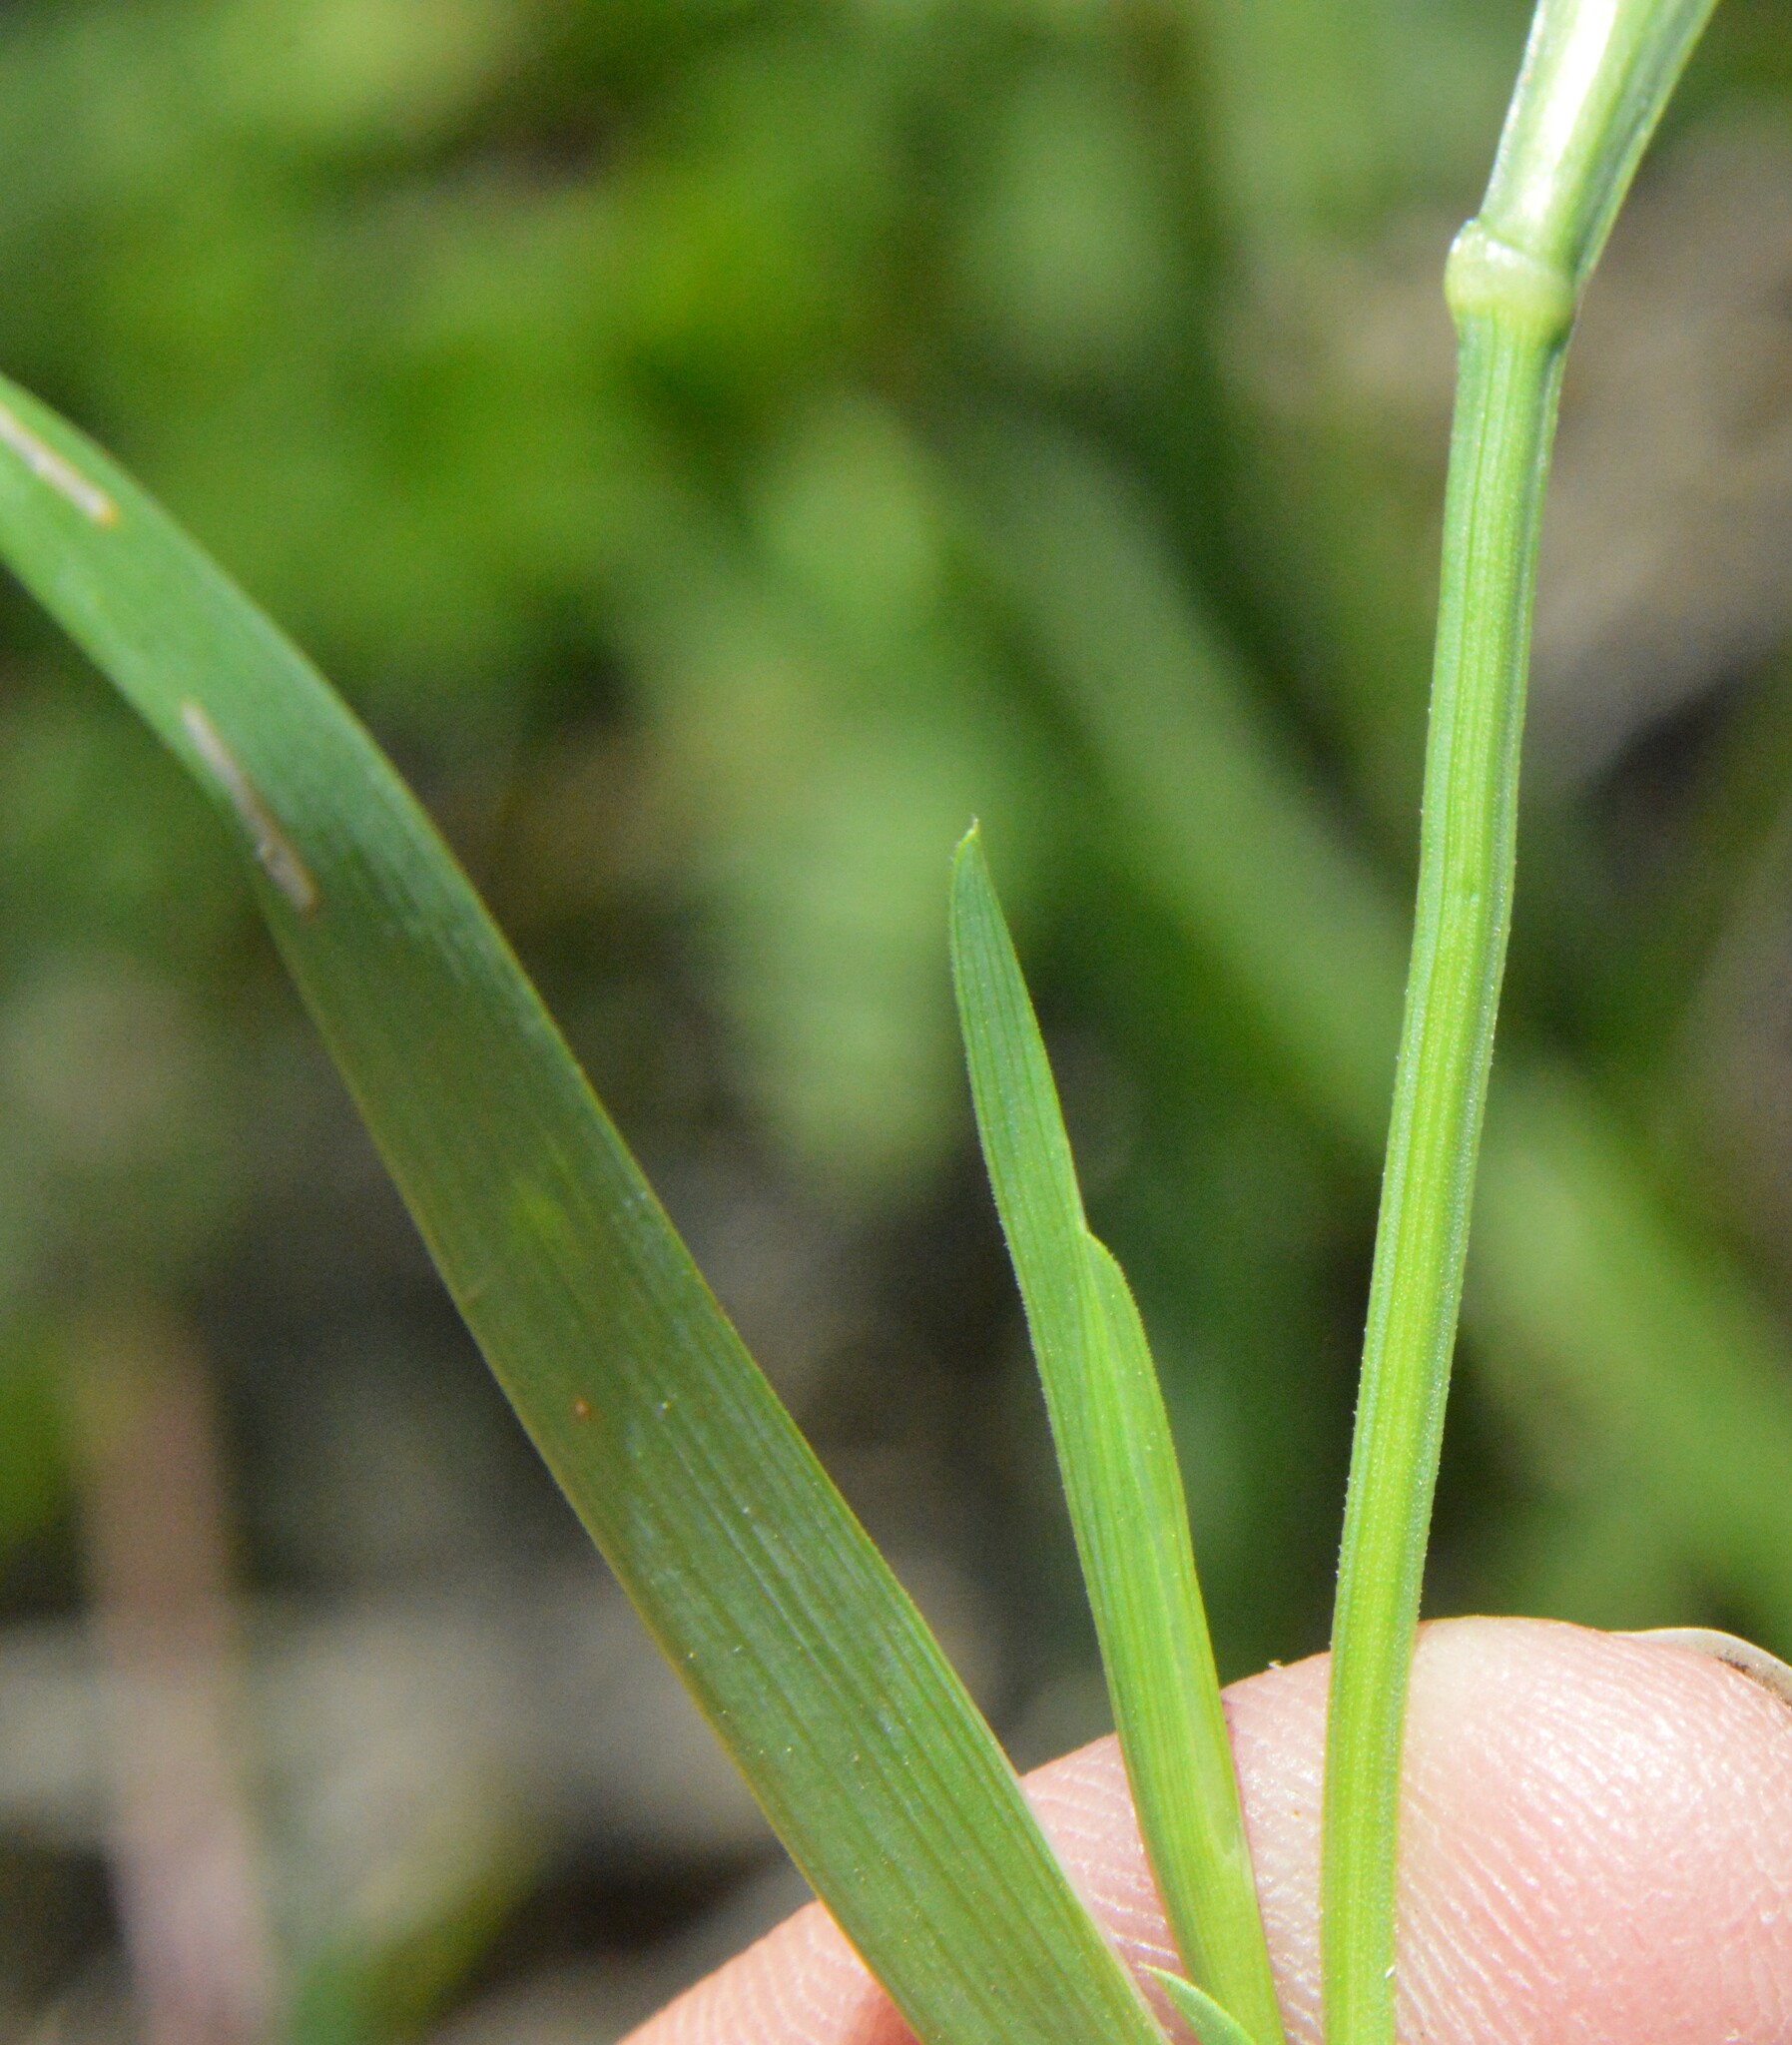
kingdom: Plantae
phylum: Tracheophyta
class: Liliopsida
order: Asparagales
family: Iridaceae
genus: Sisyrinchium
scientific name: Sisyrinchium micranthum
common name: Bermuda pigroot
